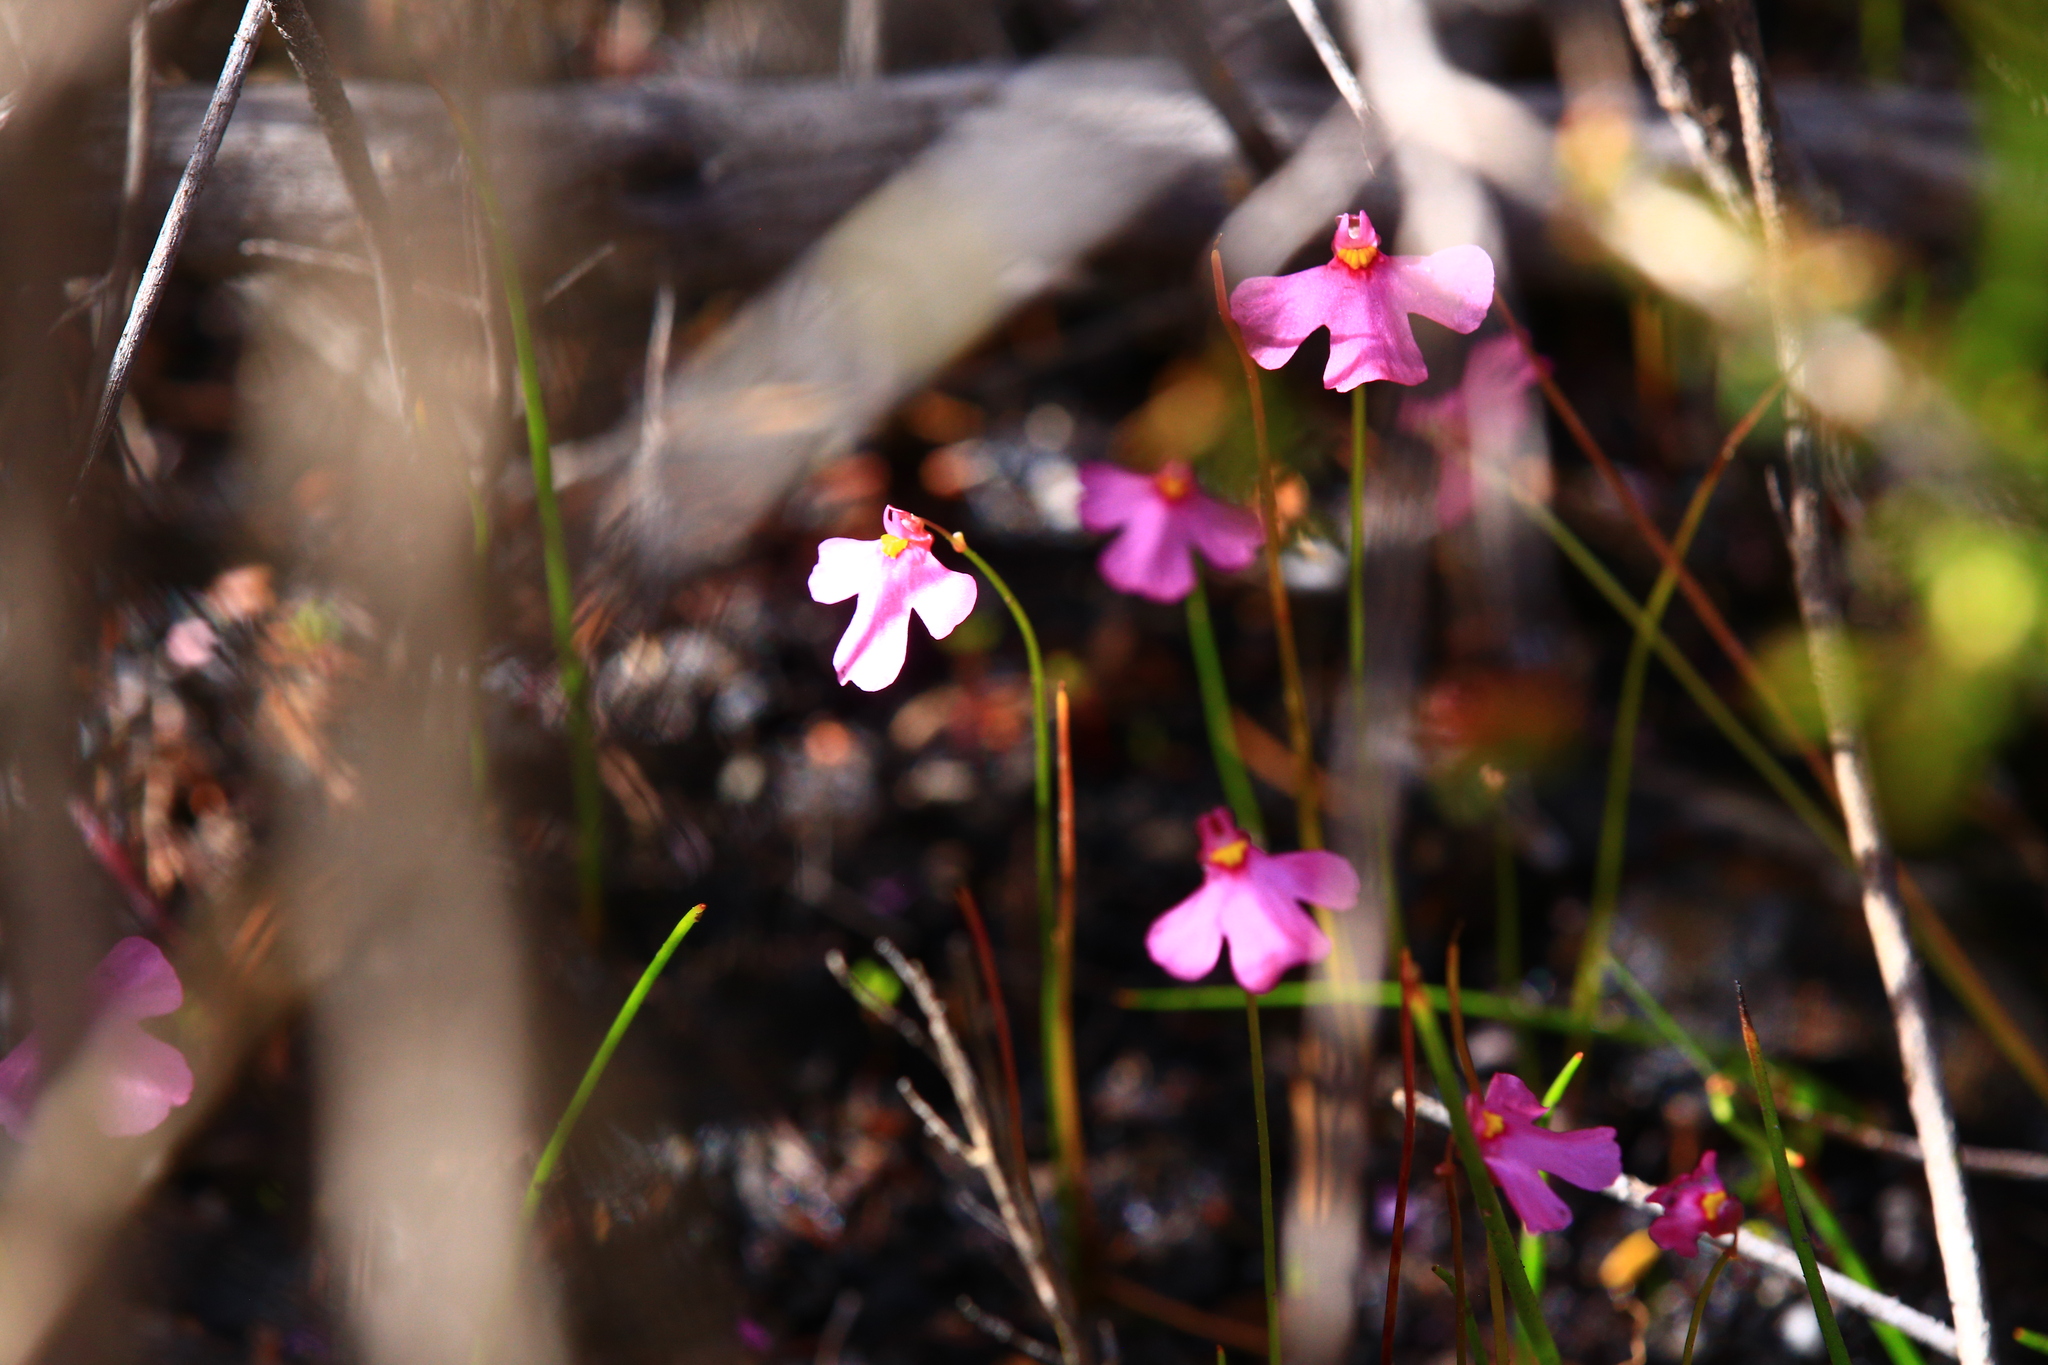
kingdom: Plantae
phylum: Tracheophyta
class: Magnoliopsida
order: Lamiales
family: Lentibulariaceae
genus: Utricularia
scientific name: Utricularia multifida
